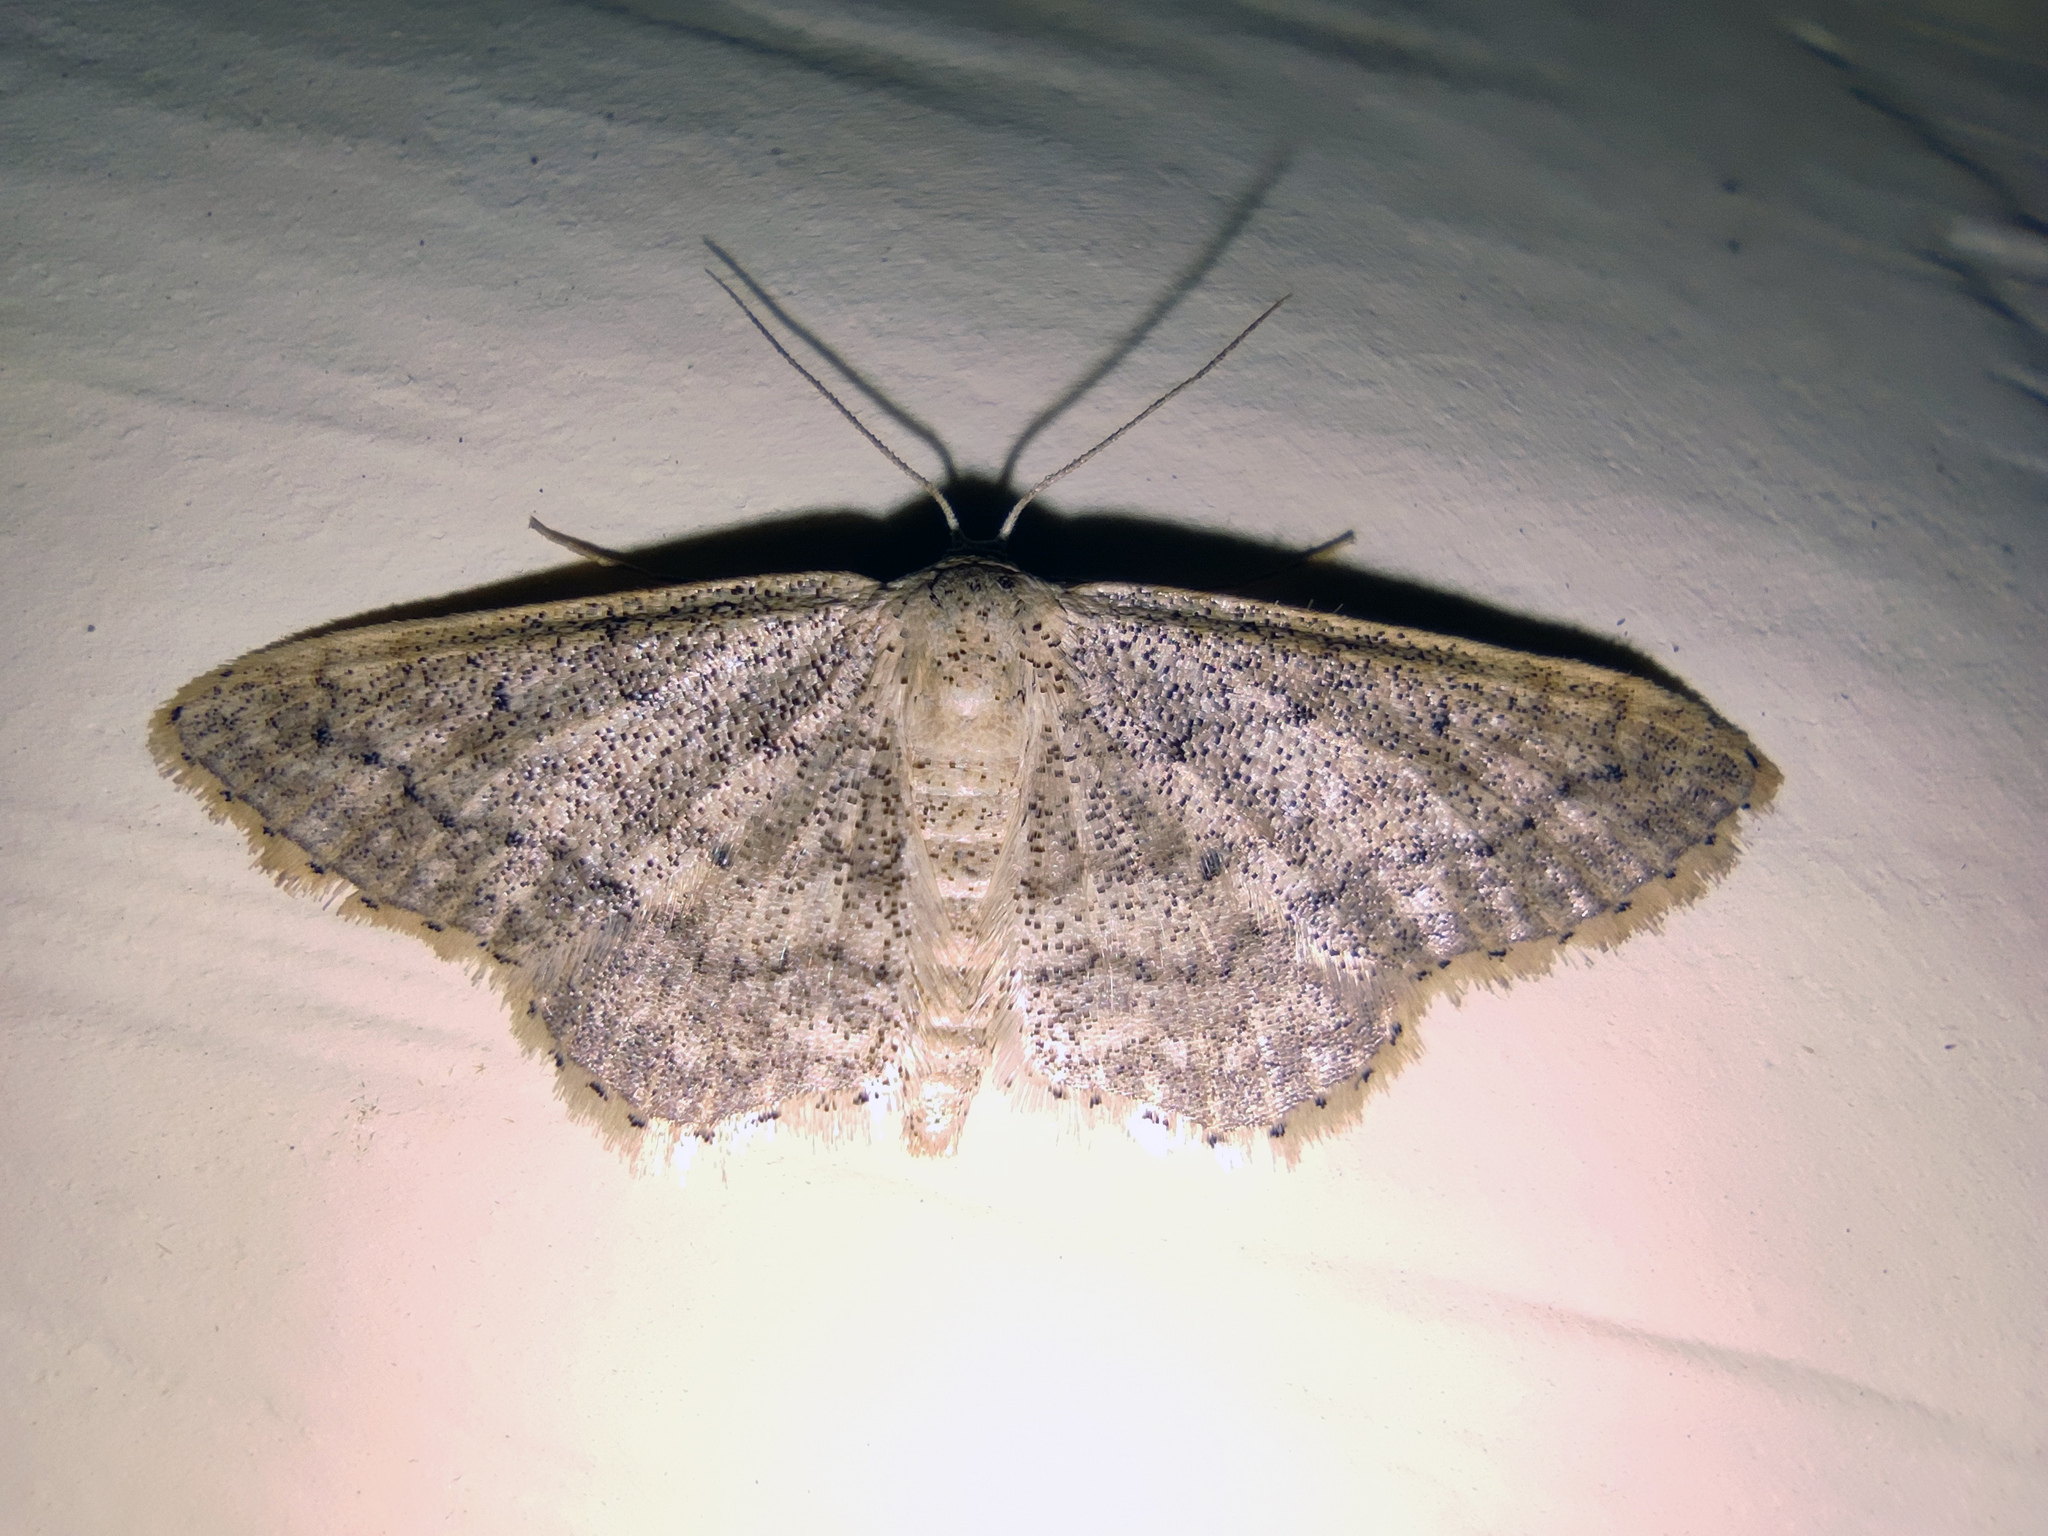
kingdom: Animalia
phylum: Arthropoda
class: Insecta
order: Lepidoptera
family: Geometridae
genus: Idaea
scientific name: Idaea sylvestraria
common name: Dotted borded wave
